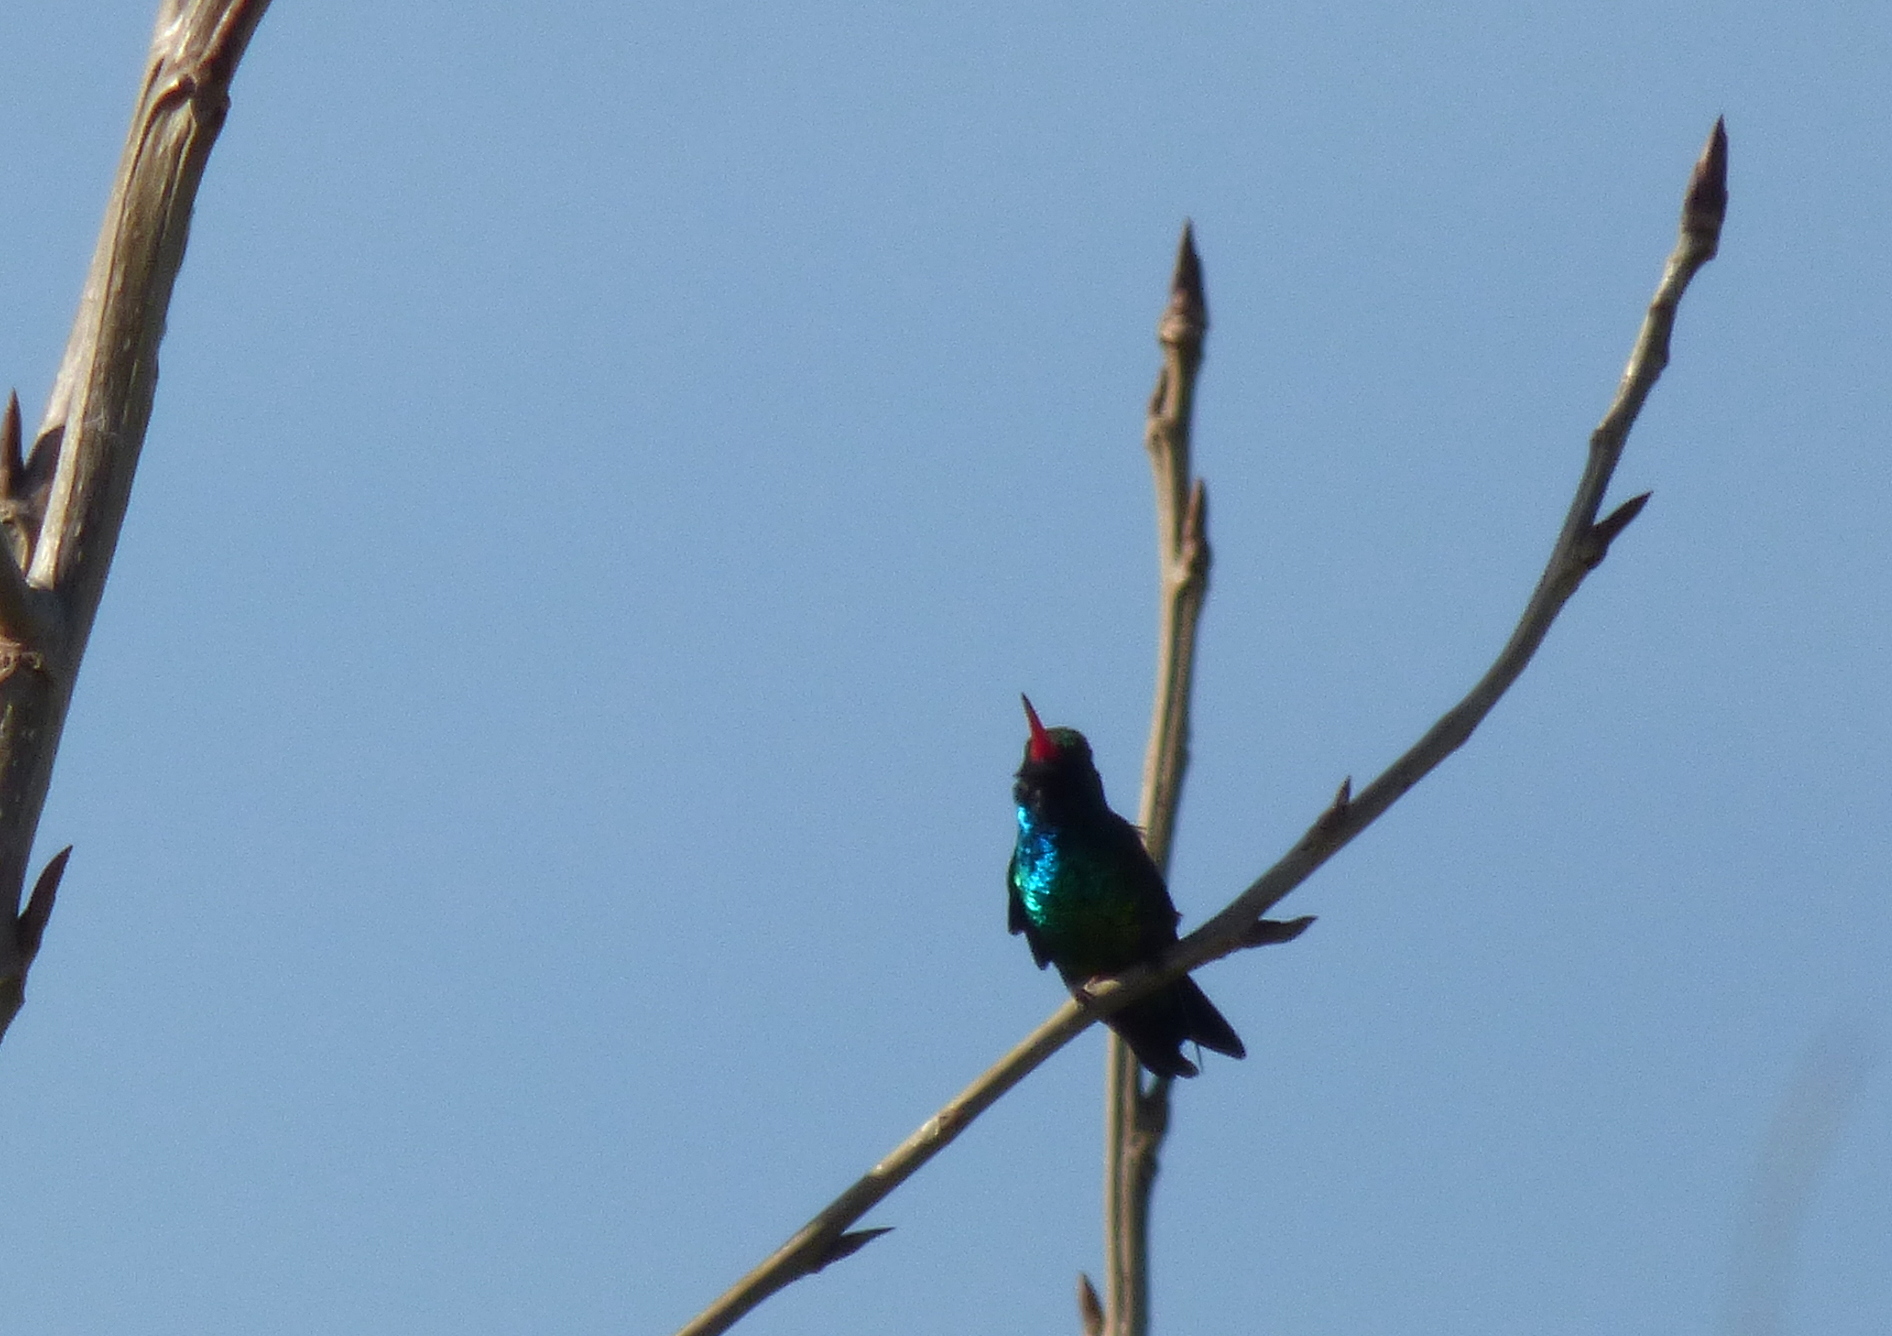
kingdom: Animalia
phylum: Chordata
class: Aves
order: Apodiformes
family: Trochilidae
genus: Chlorostilbon
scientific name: Chlorostilbon lucidus
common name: Glittering-bellied emerald
